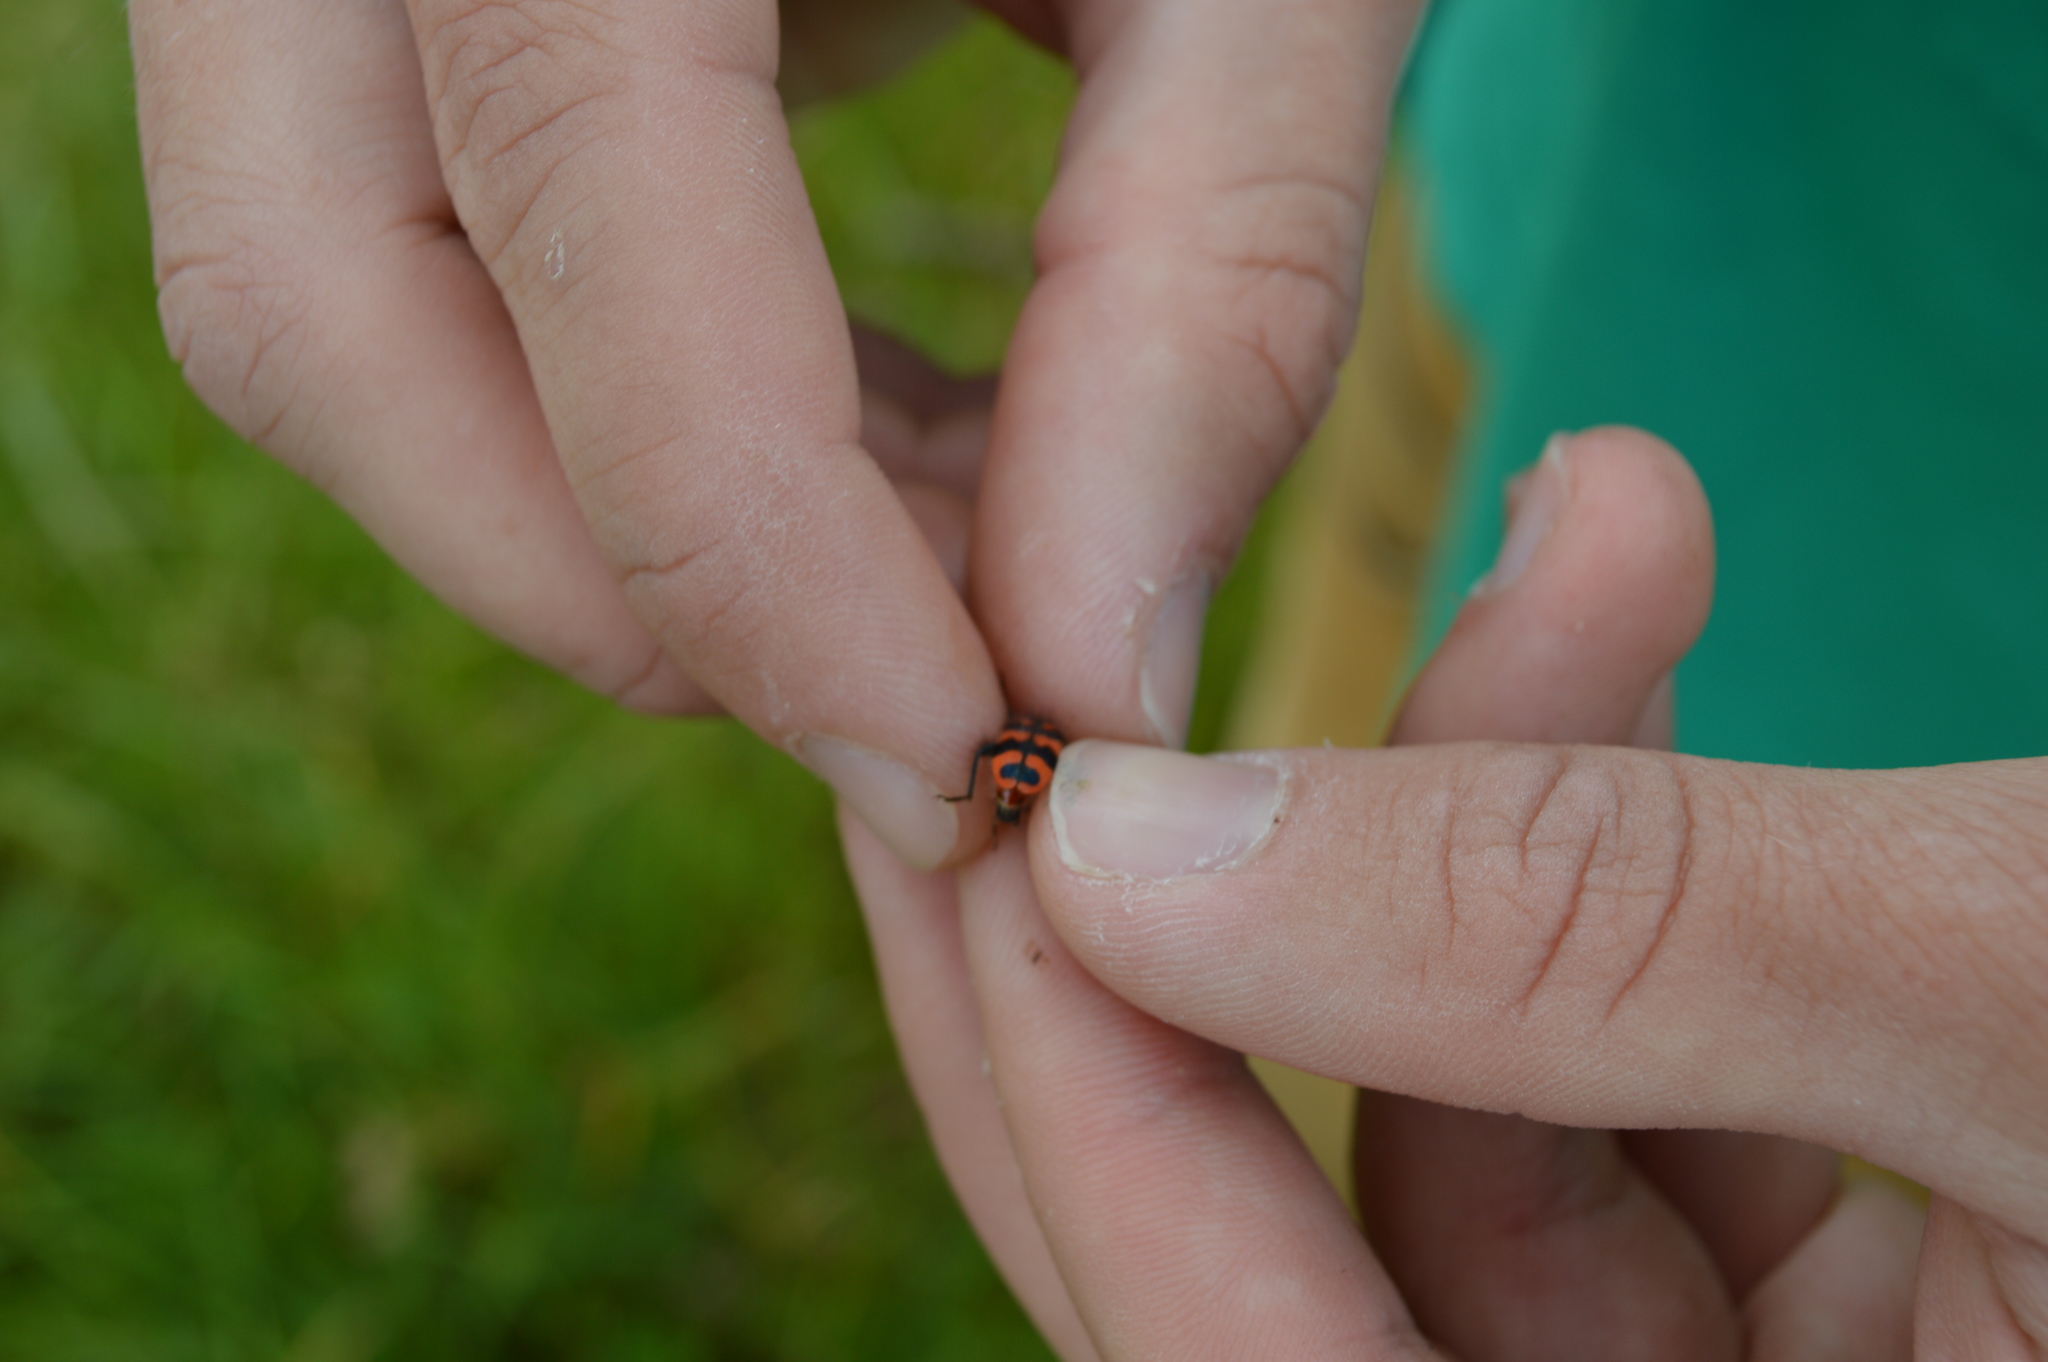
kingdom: Animalia
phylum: Arthropoda
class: Insecta
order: Coleoptera
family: Cleridae
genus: Trichodes
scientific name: Trichodes alvearius
